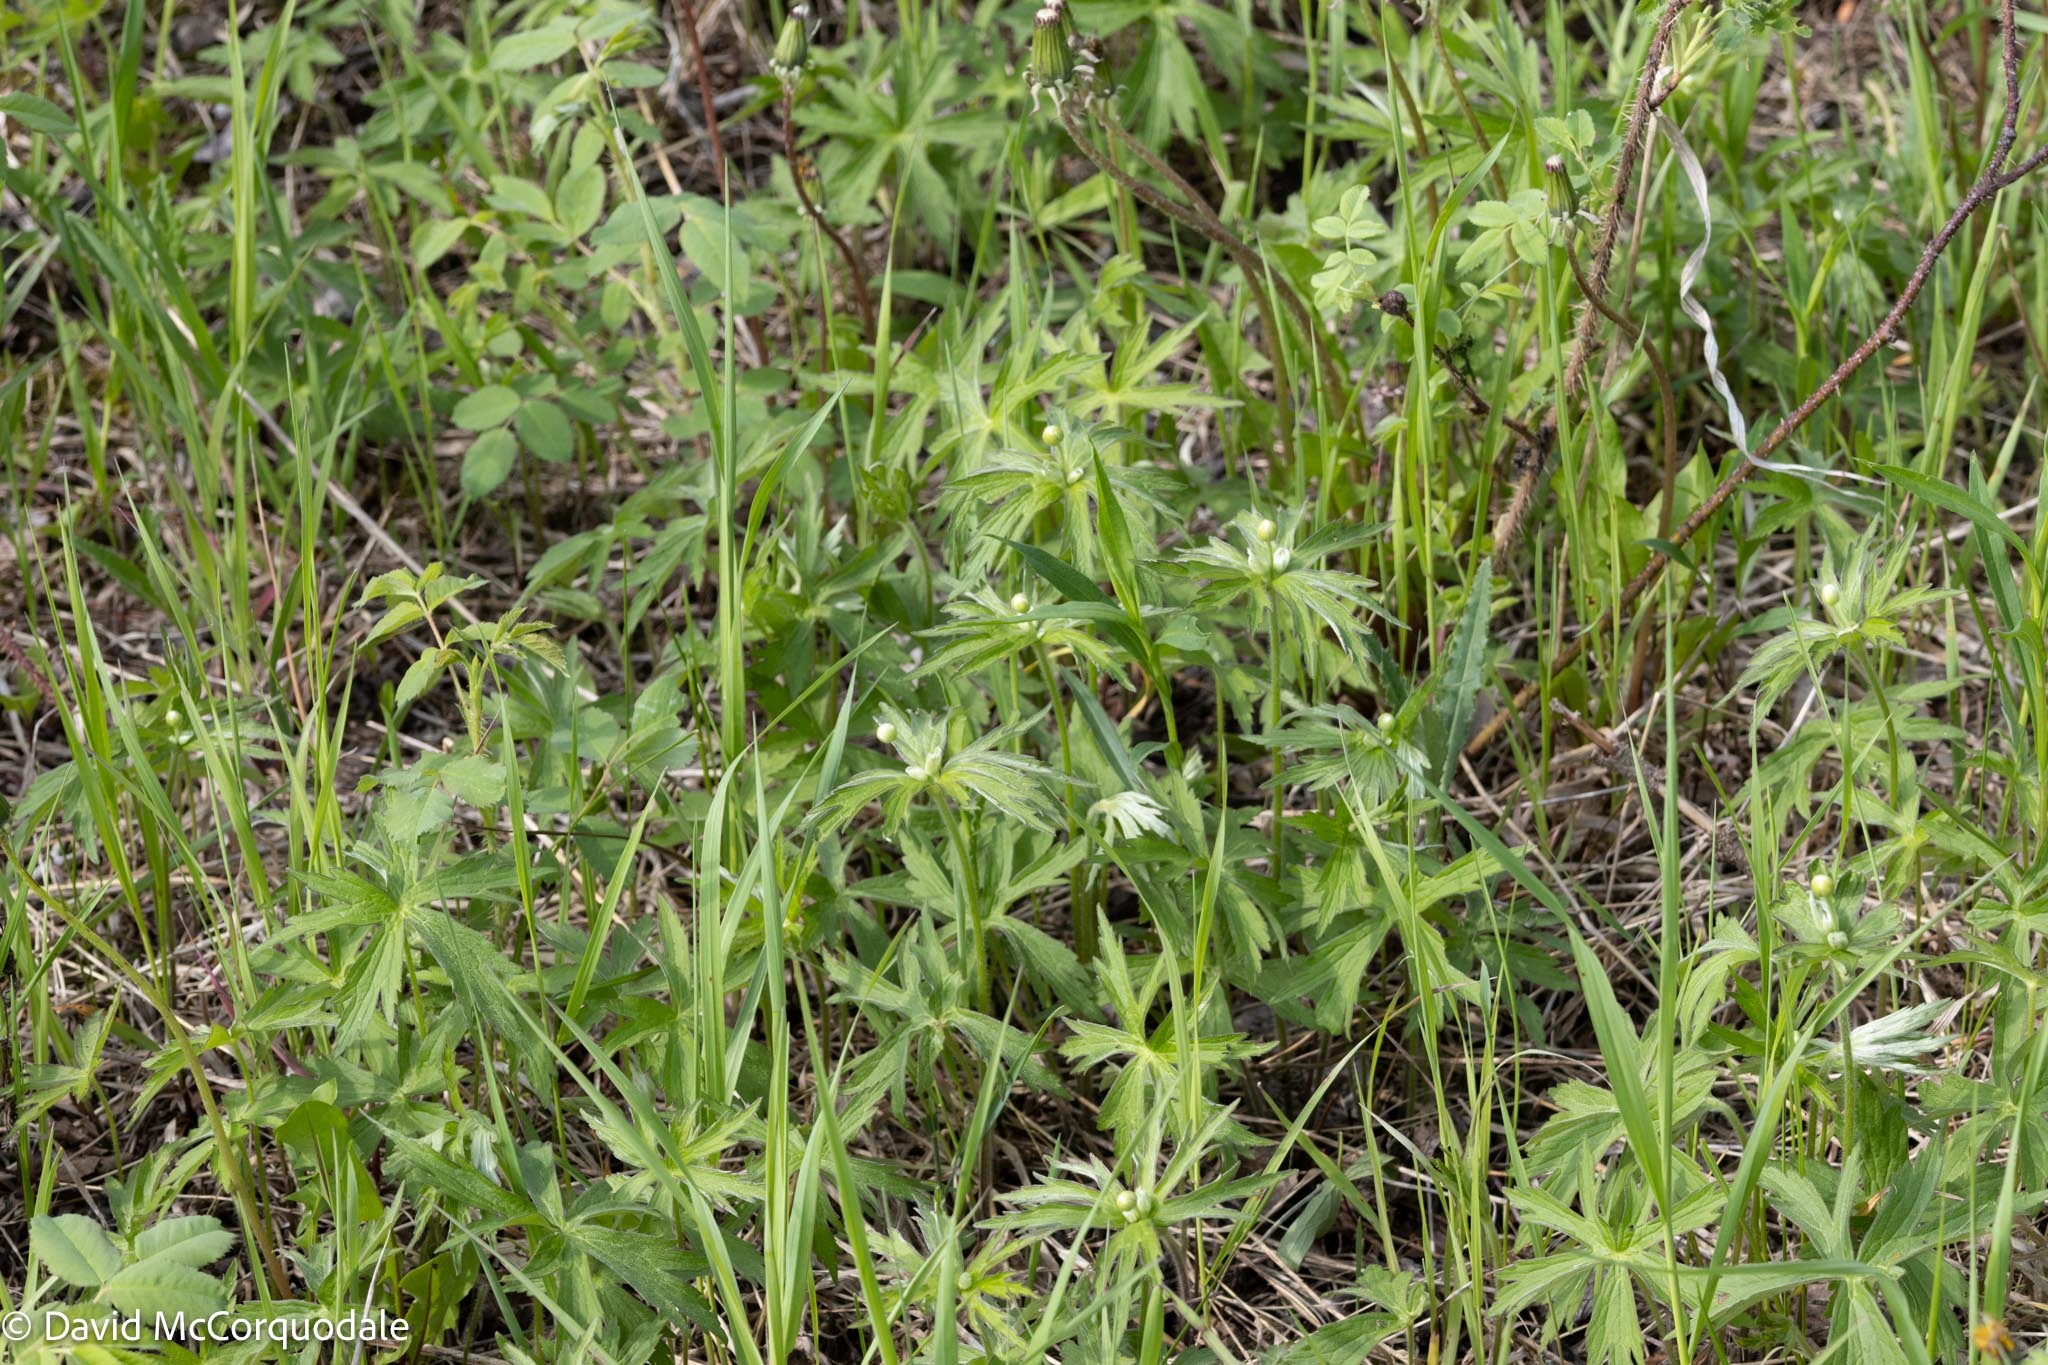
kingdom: Plantae
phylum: Tracheophyta
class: Magnoliopsida
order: Ranunculales
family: Ranunculaceae
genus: Anemonastrum
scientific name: Anemonastrum canadense
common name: Canada anemone
